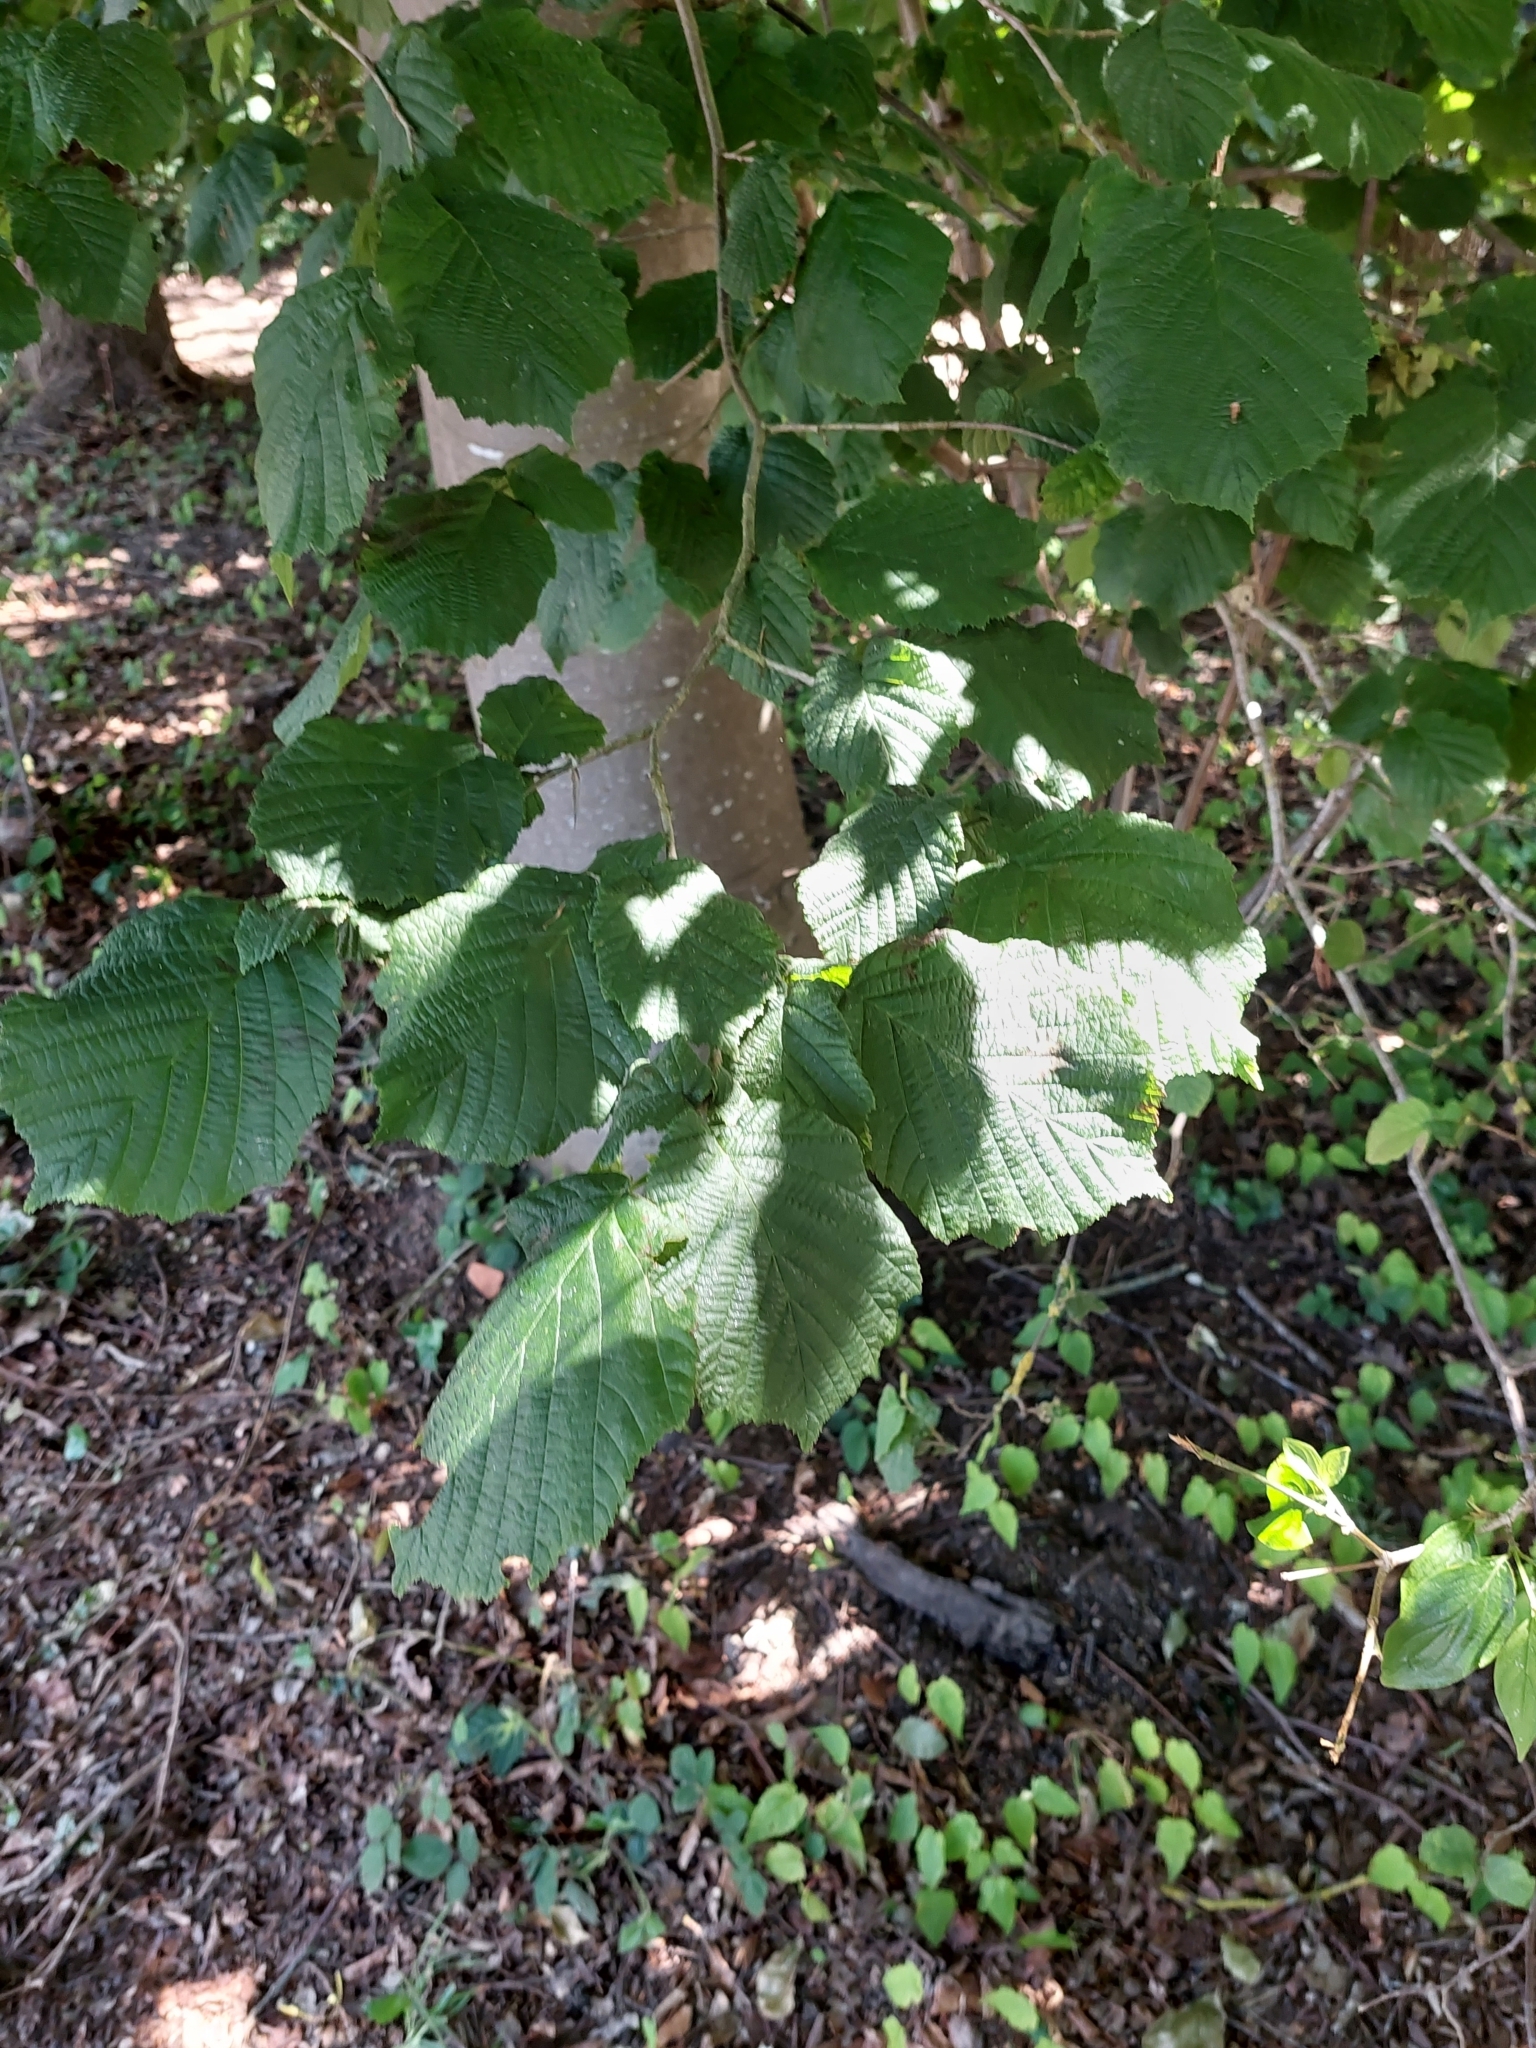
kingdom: Plantae
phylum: Tracheophyta
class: Magnoliopsida
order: Fagales
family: Betulaceae
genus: Corylus
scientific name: Corylus avellana
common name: European hazel
